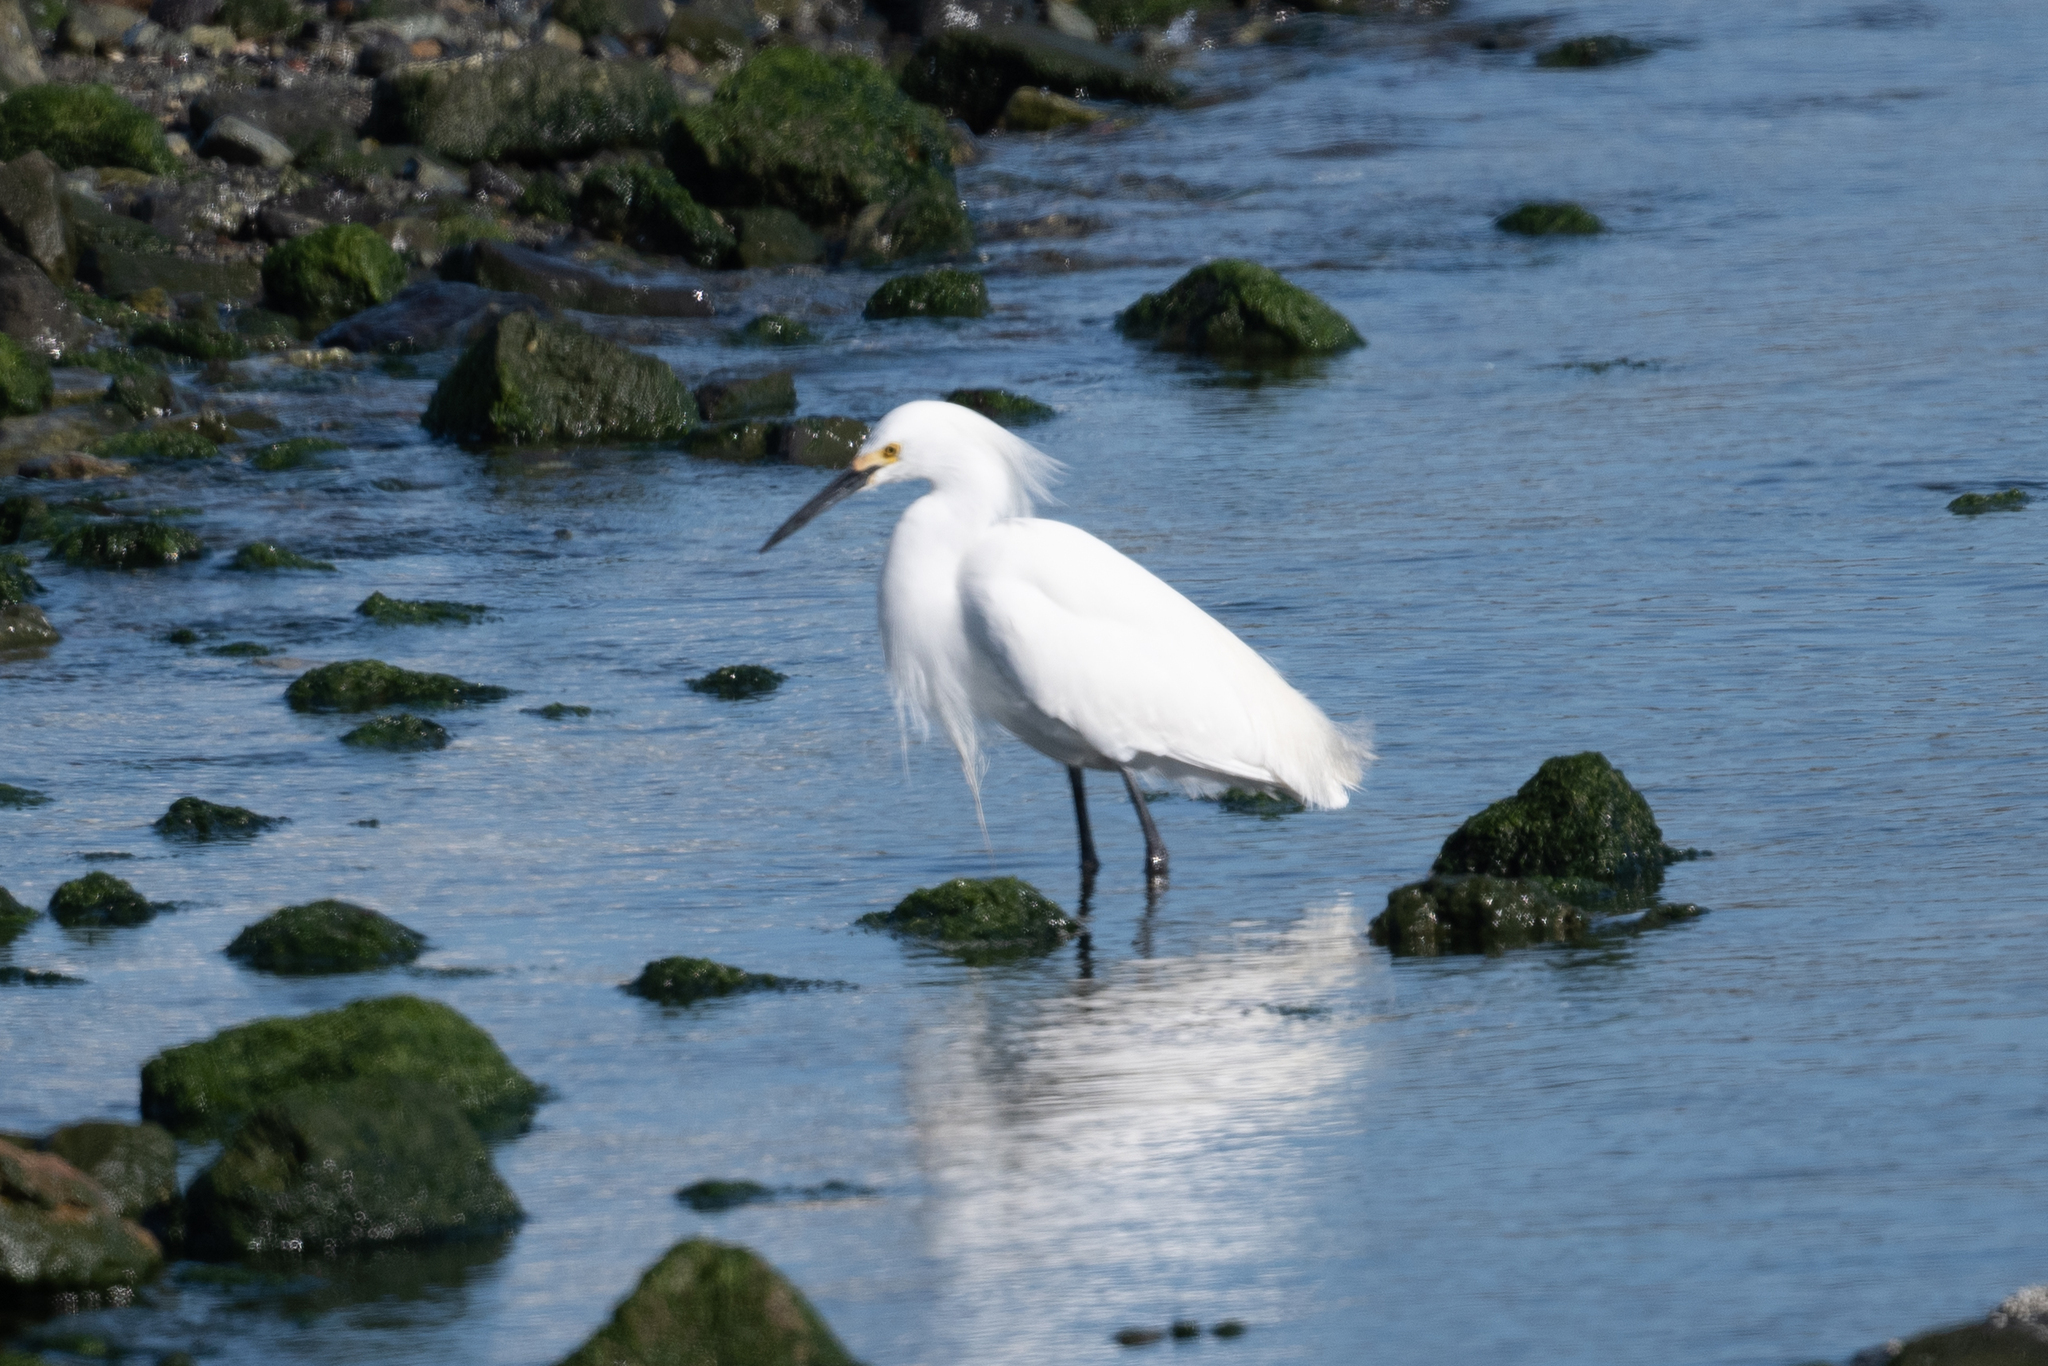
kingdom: Animalia
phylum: Chordata
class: Aves
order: Pelecaniformes
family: Ardeidae
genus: Egretta
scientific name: Egretta thula
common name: Snowy egret
